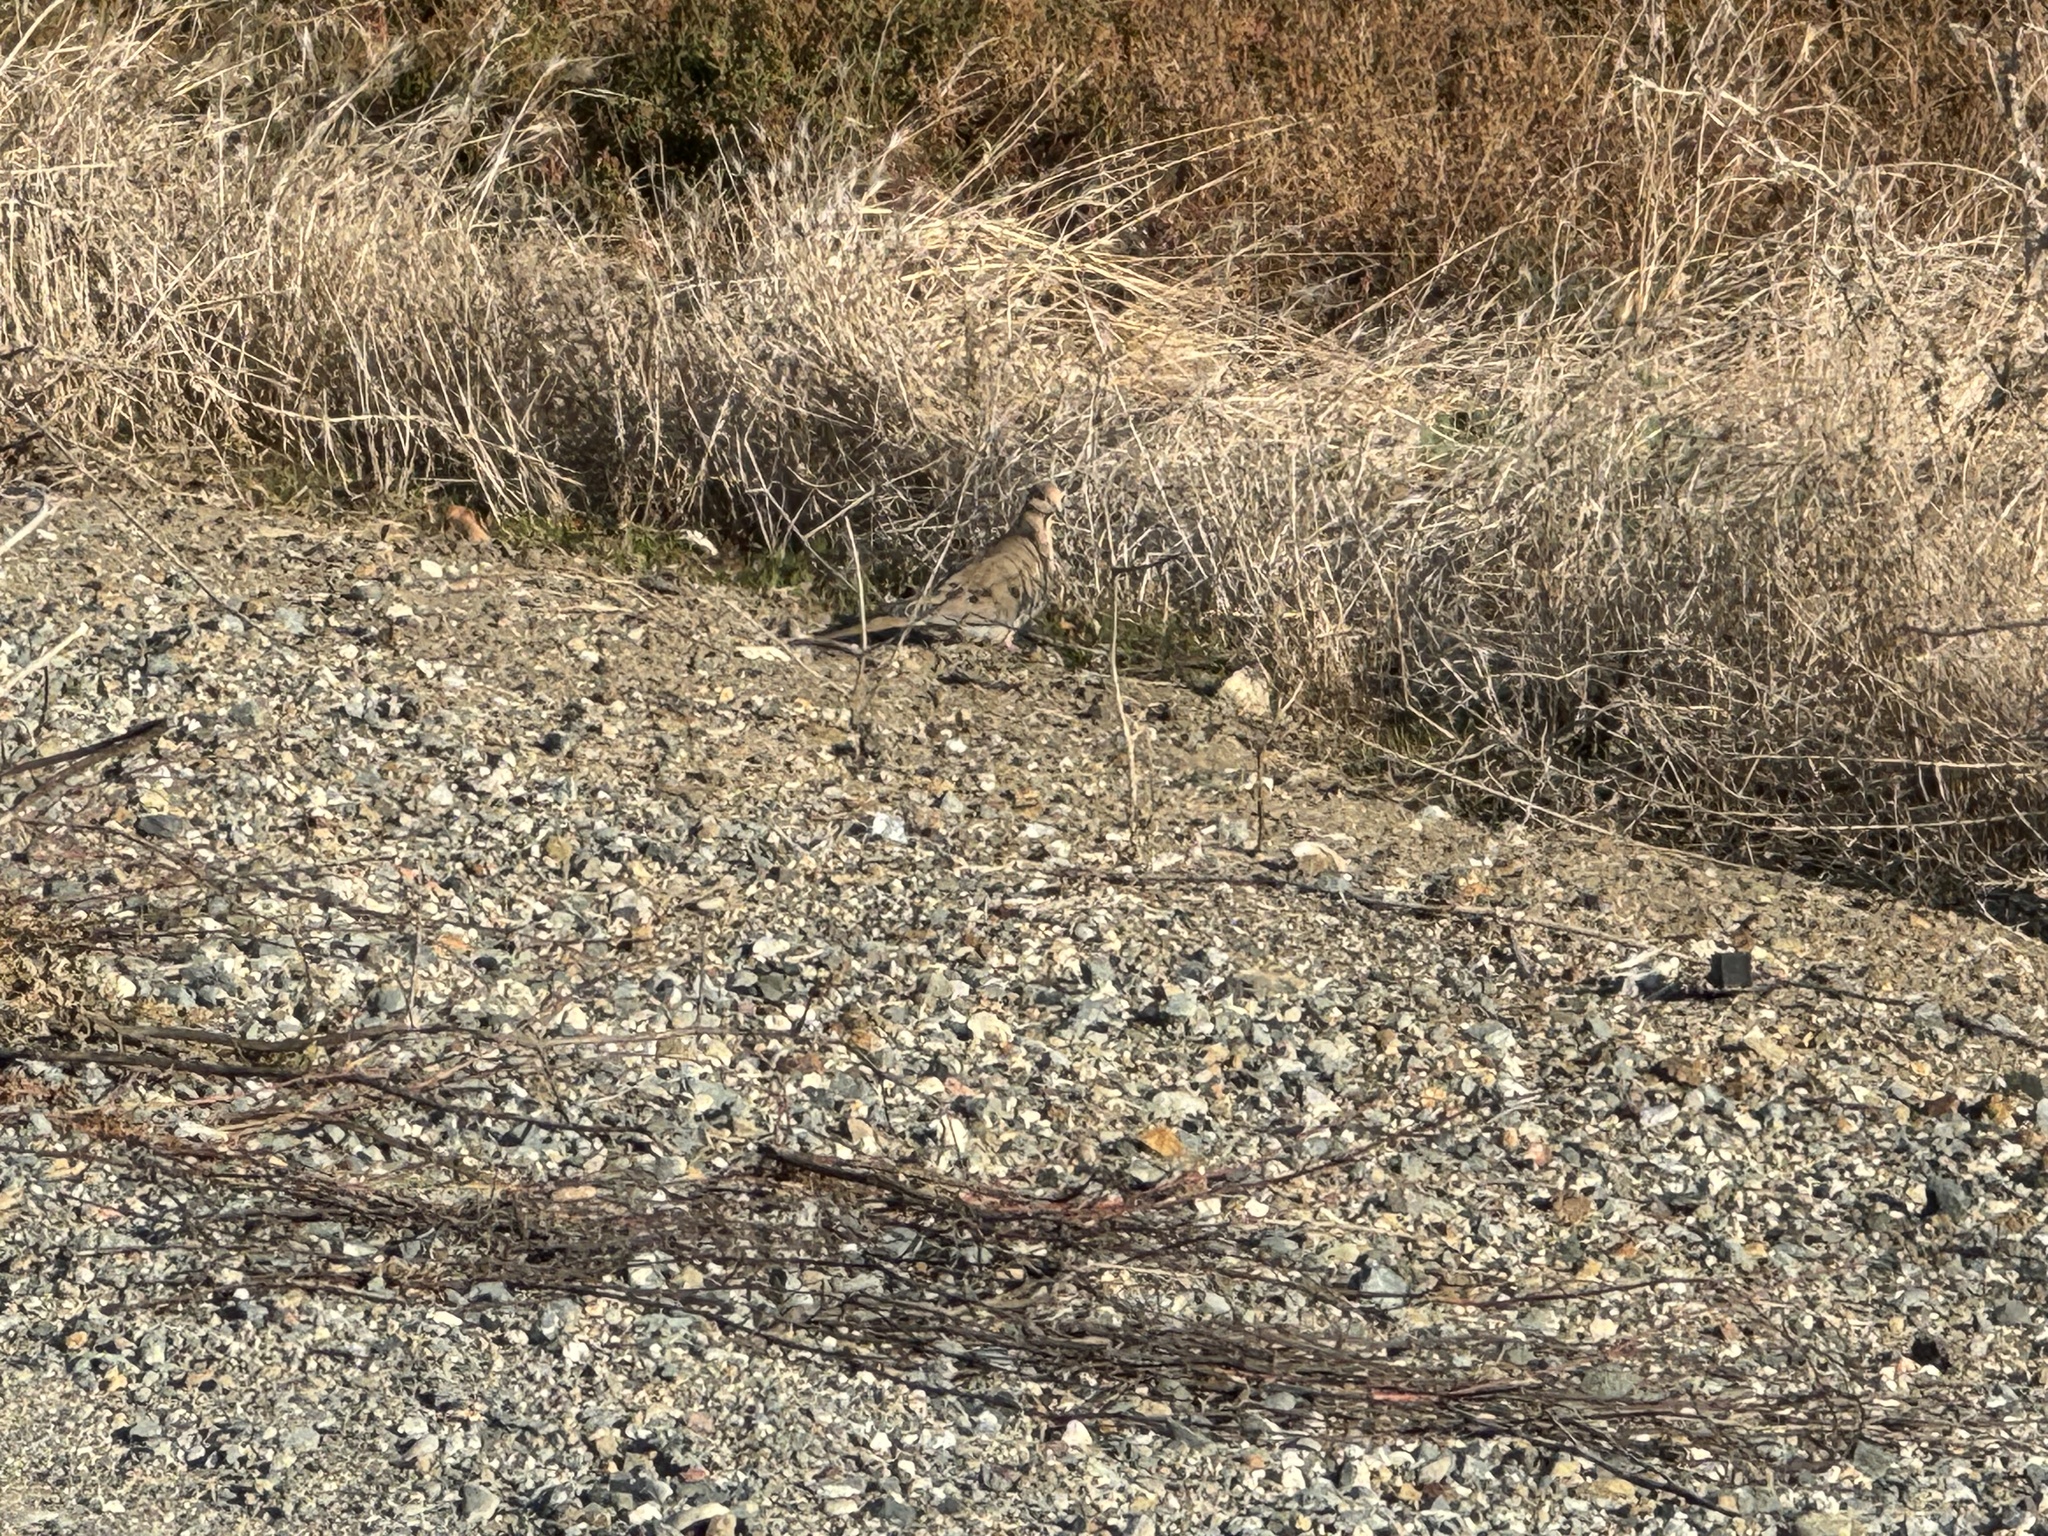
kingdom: Animalia
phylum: Chordata
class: Aves
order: Columbiformes
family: Columbidae
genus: Zenaida
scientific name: Zenaida macroura
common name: Mourning dove
